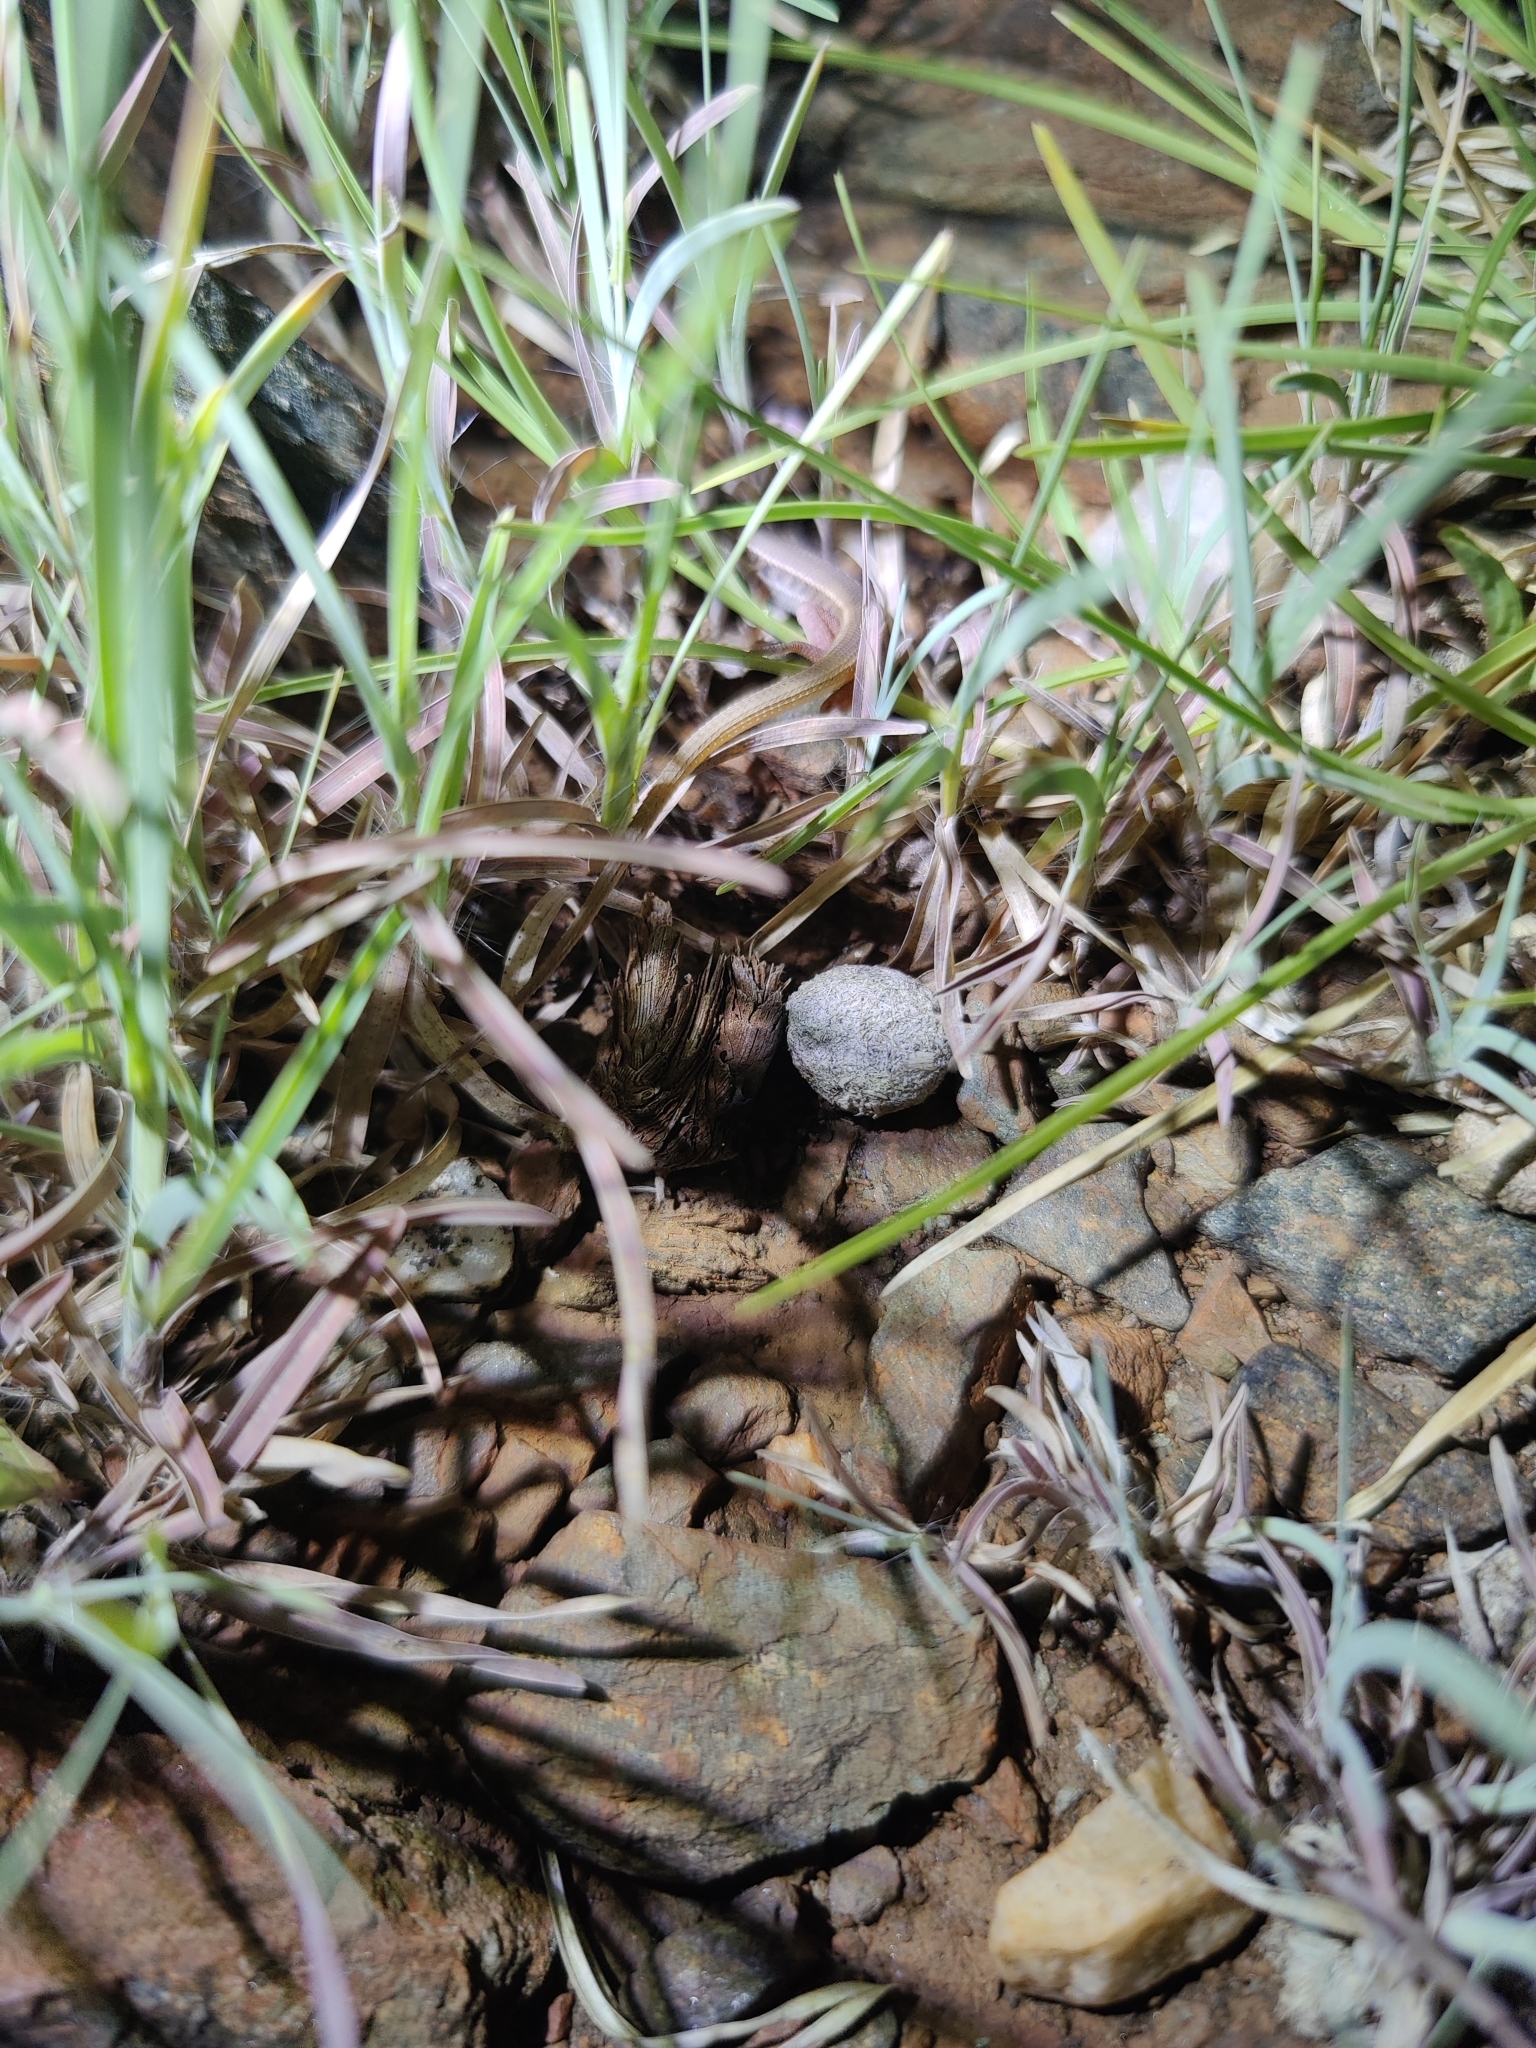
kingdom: Animalia
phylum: Chordata
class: Mammalia
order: Lagomorpha
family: Leporidae
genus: Lepus
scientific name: Lepus nigricollis
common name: Indian hare
